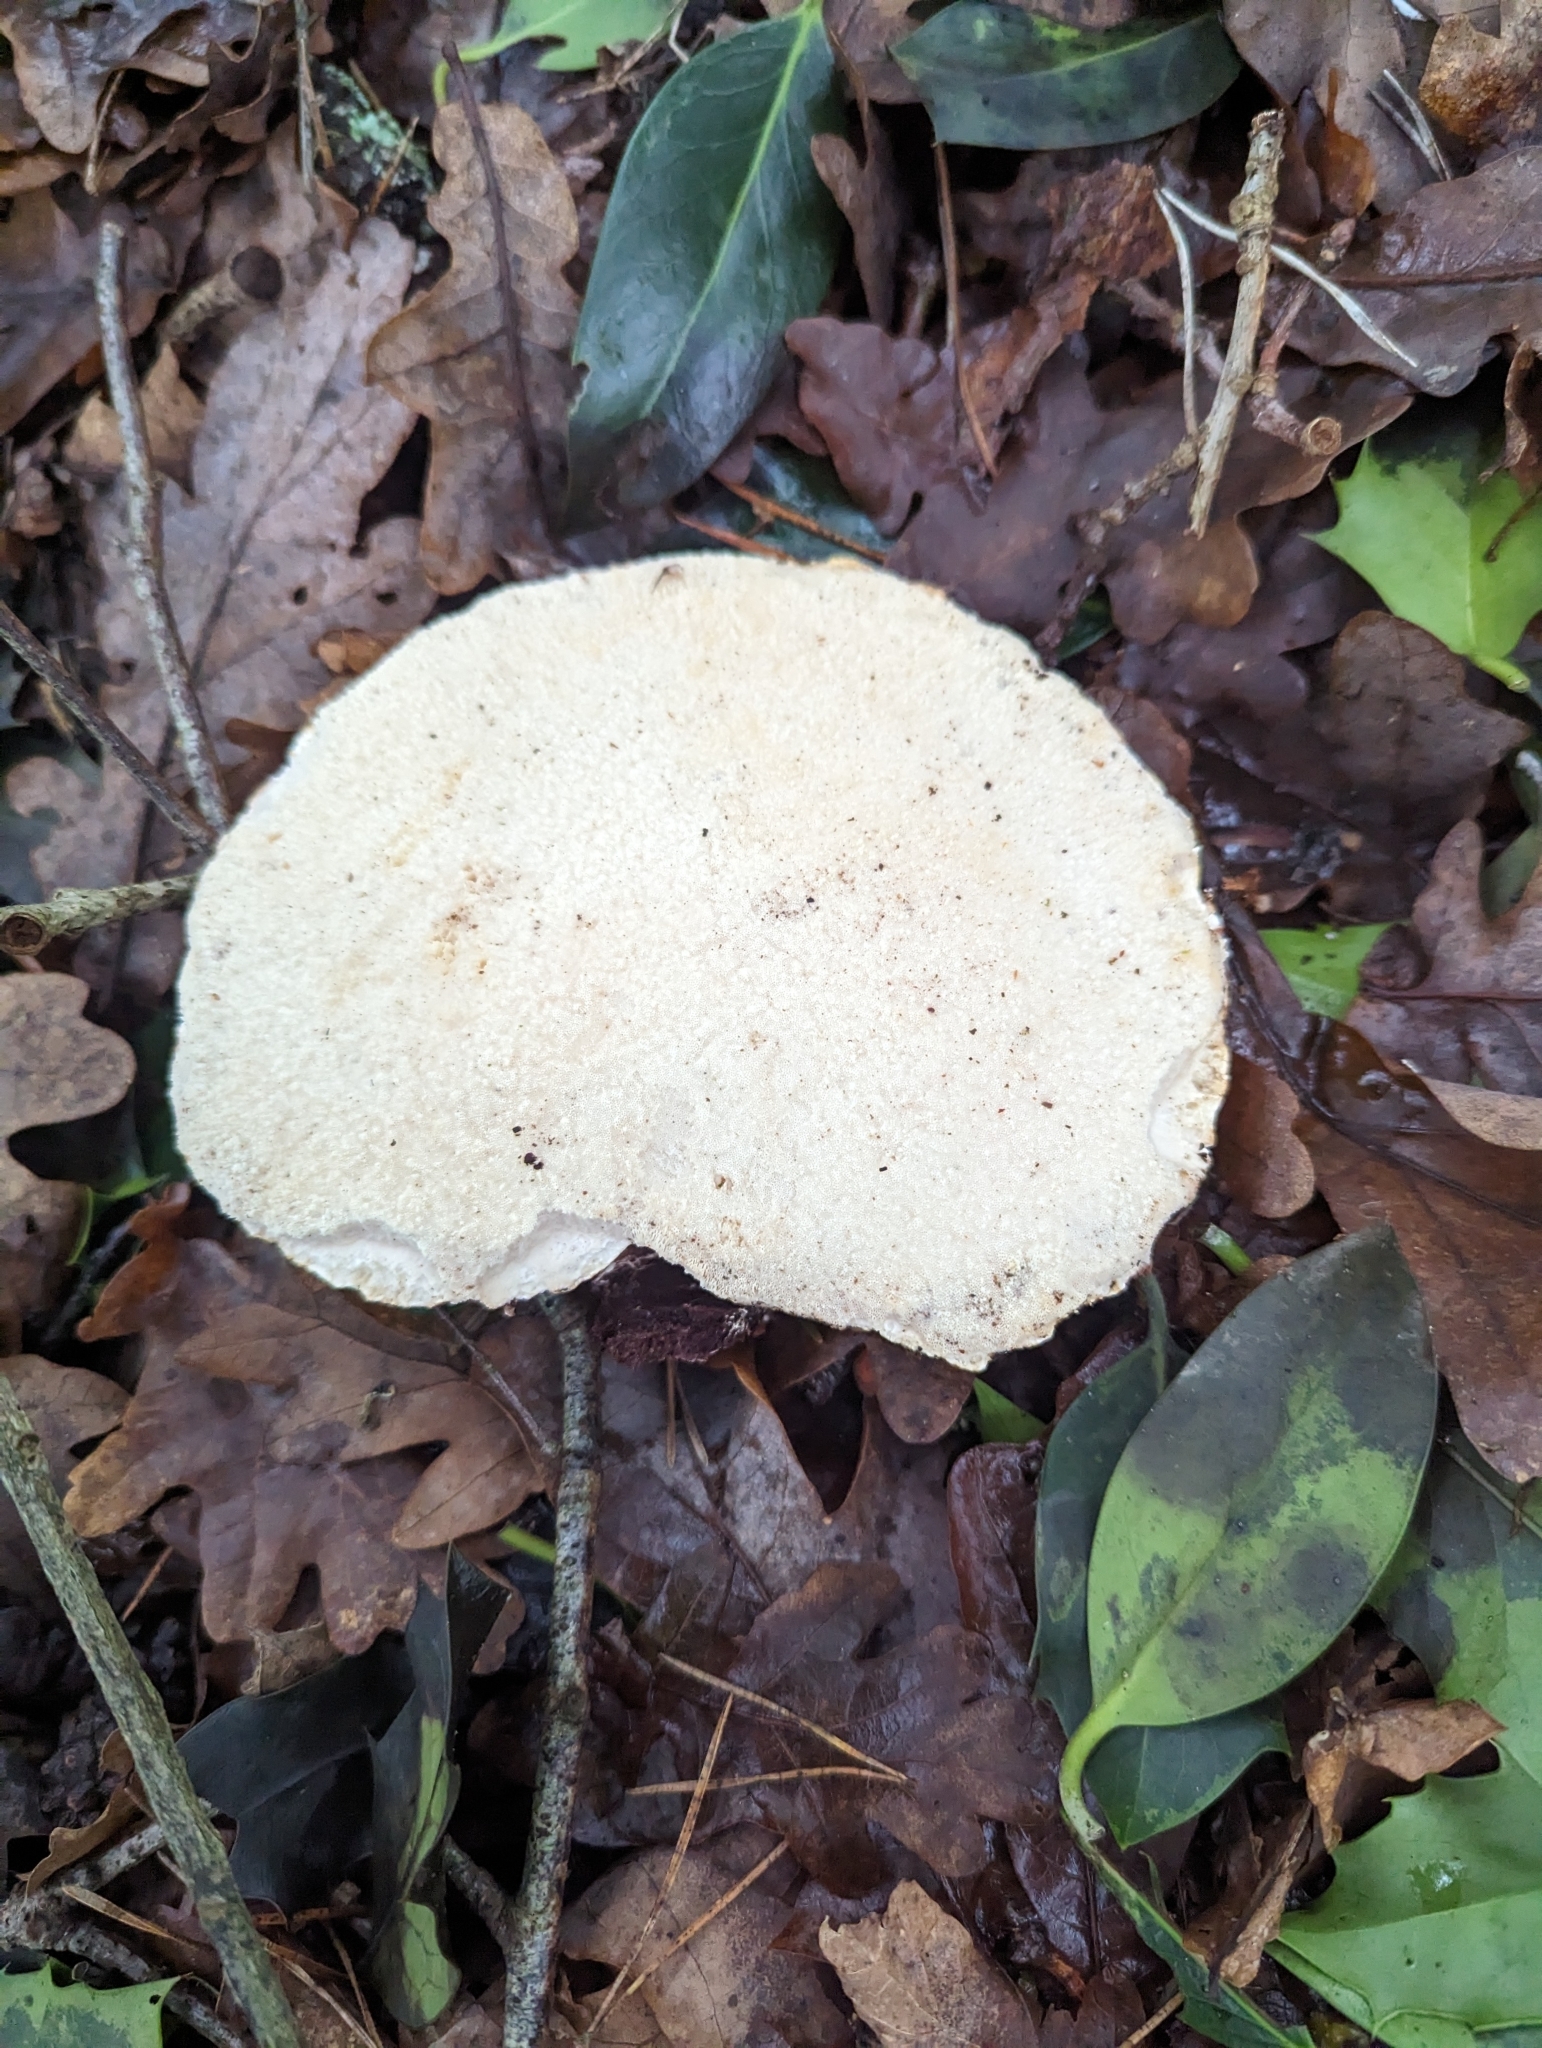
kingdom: Fungi
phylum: Basidiomycota
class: Agaricomycetes
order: Polyporales
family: Fomitopsidaceae
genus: Fomitopsis
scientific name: Fomitopsis betulina
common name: Birch polypore
